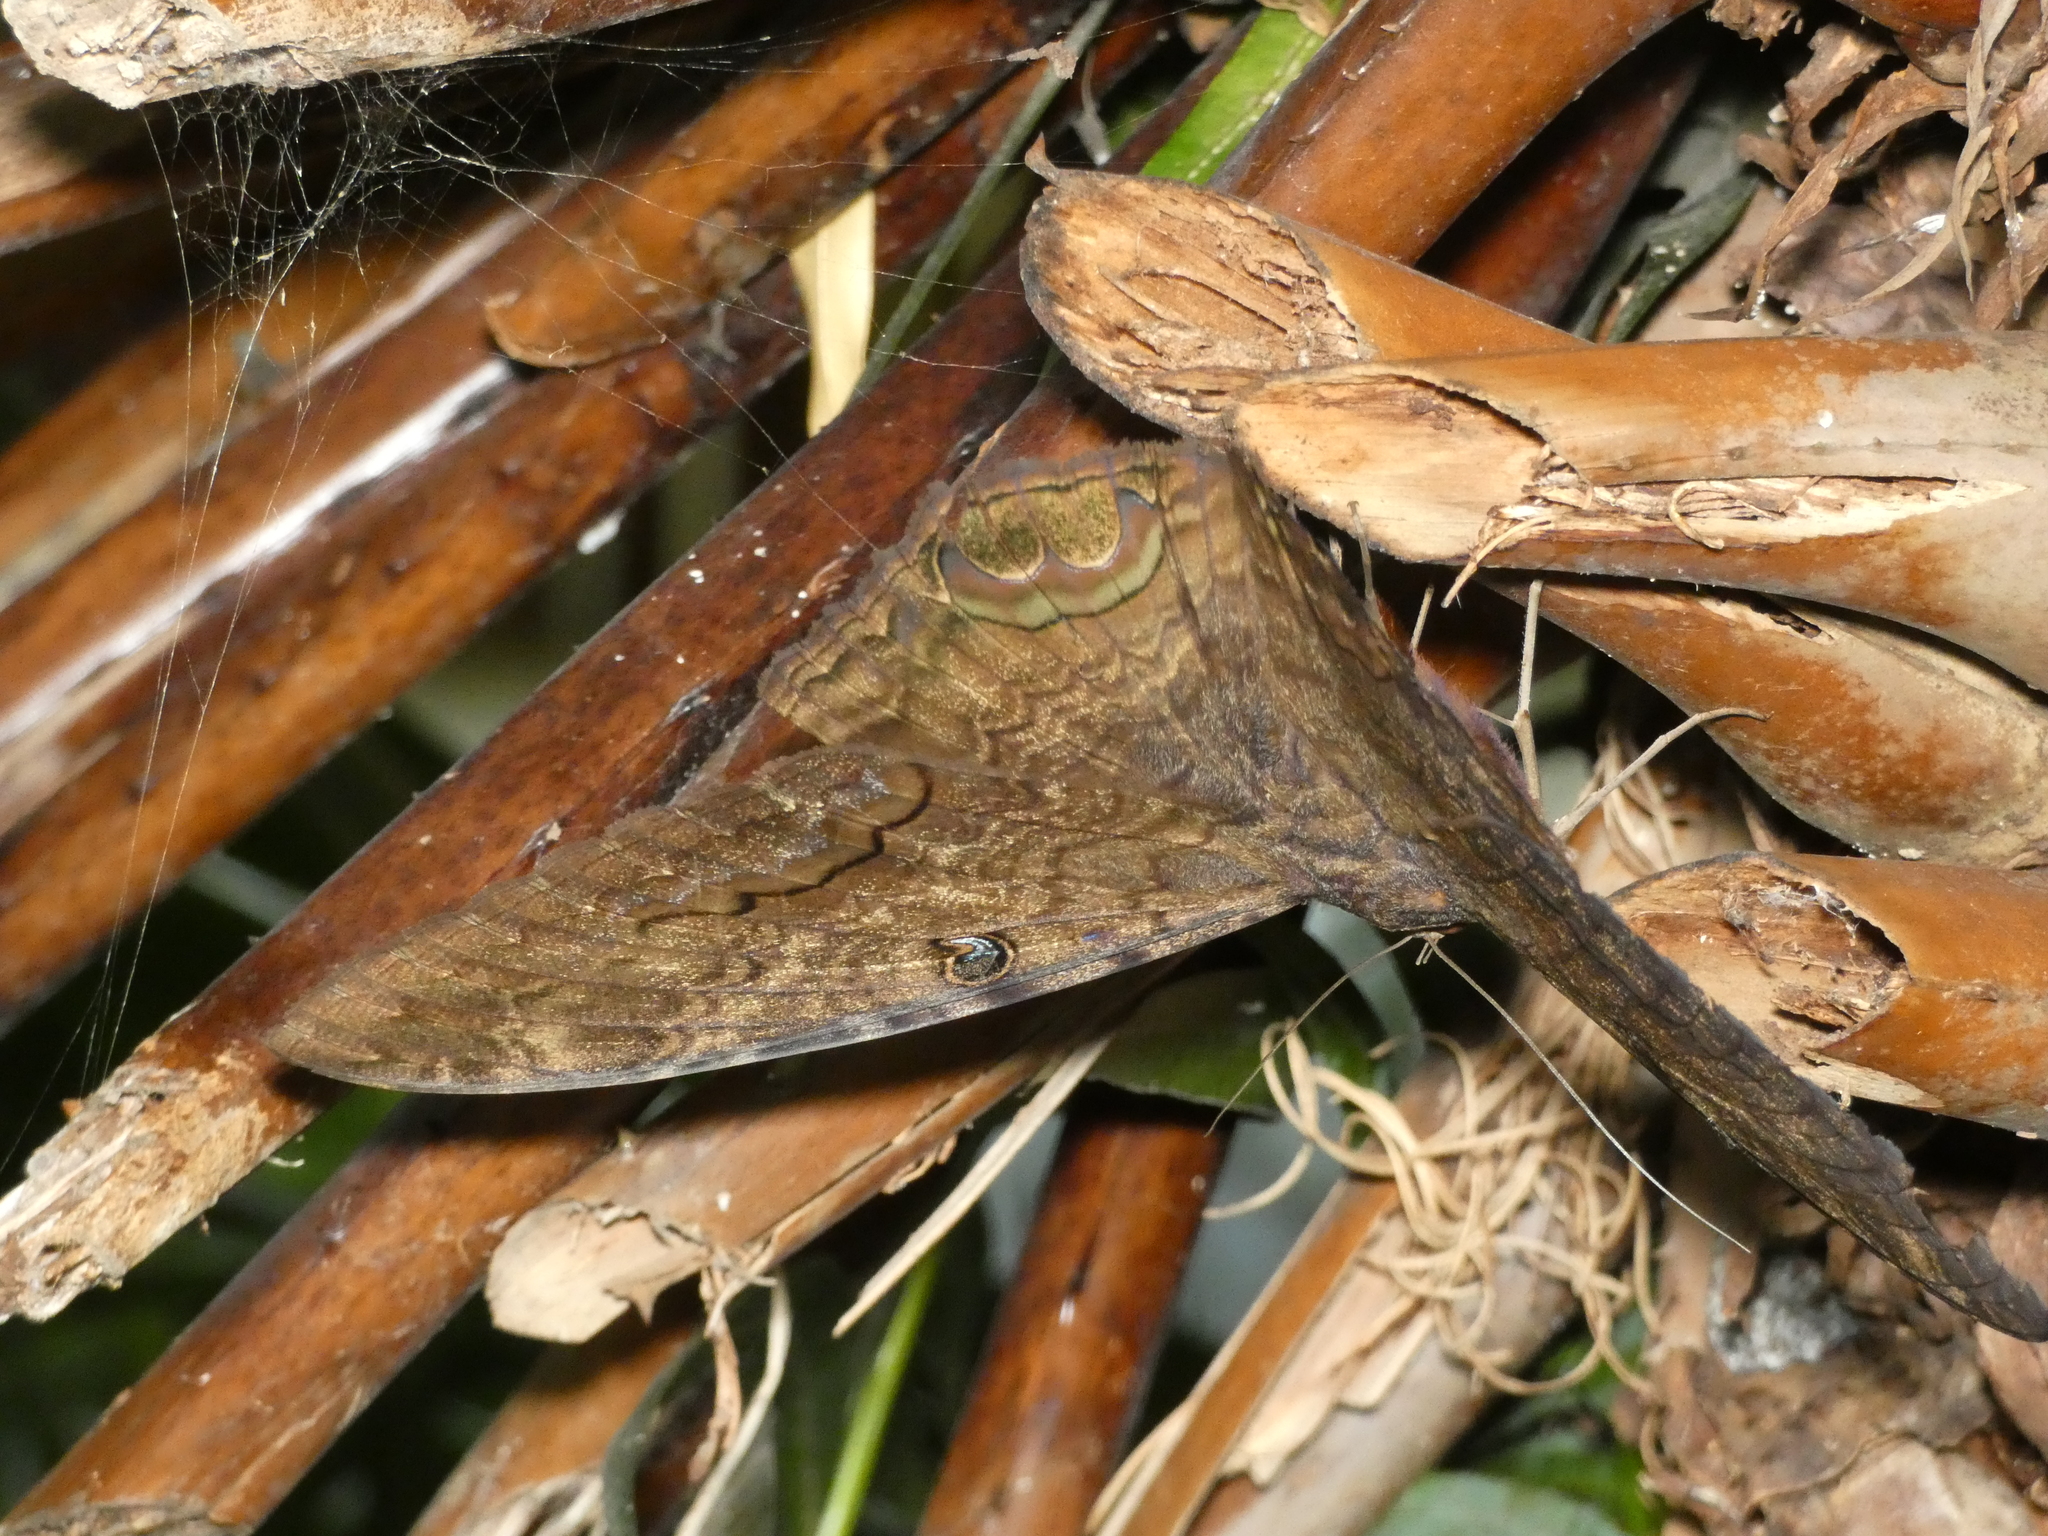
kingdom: Animalia
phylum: Arthropoda
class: Insecta
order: Lepidoptera
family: Erebidae
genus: Ascalapha
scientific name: Ascalapha odorata
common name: Black witch
